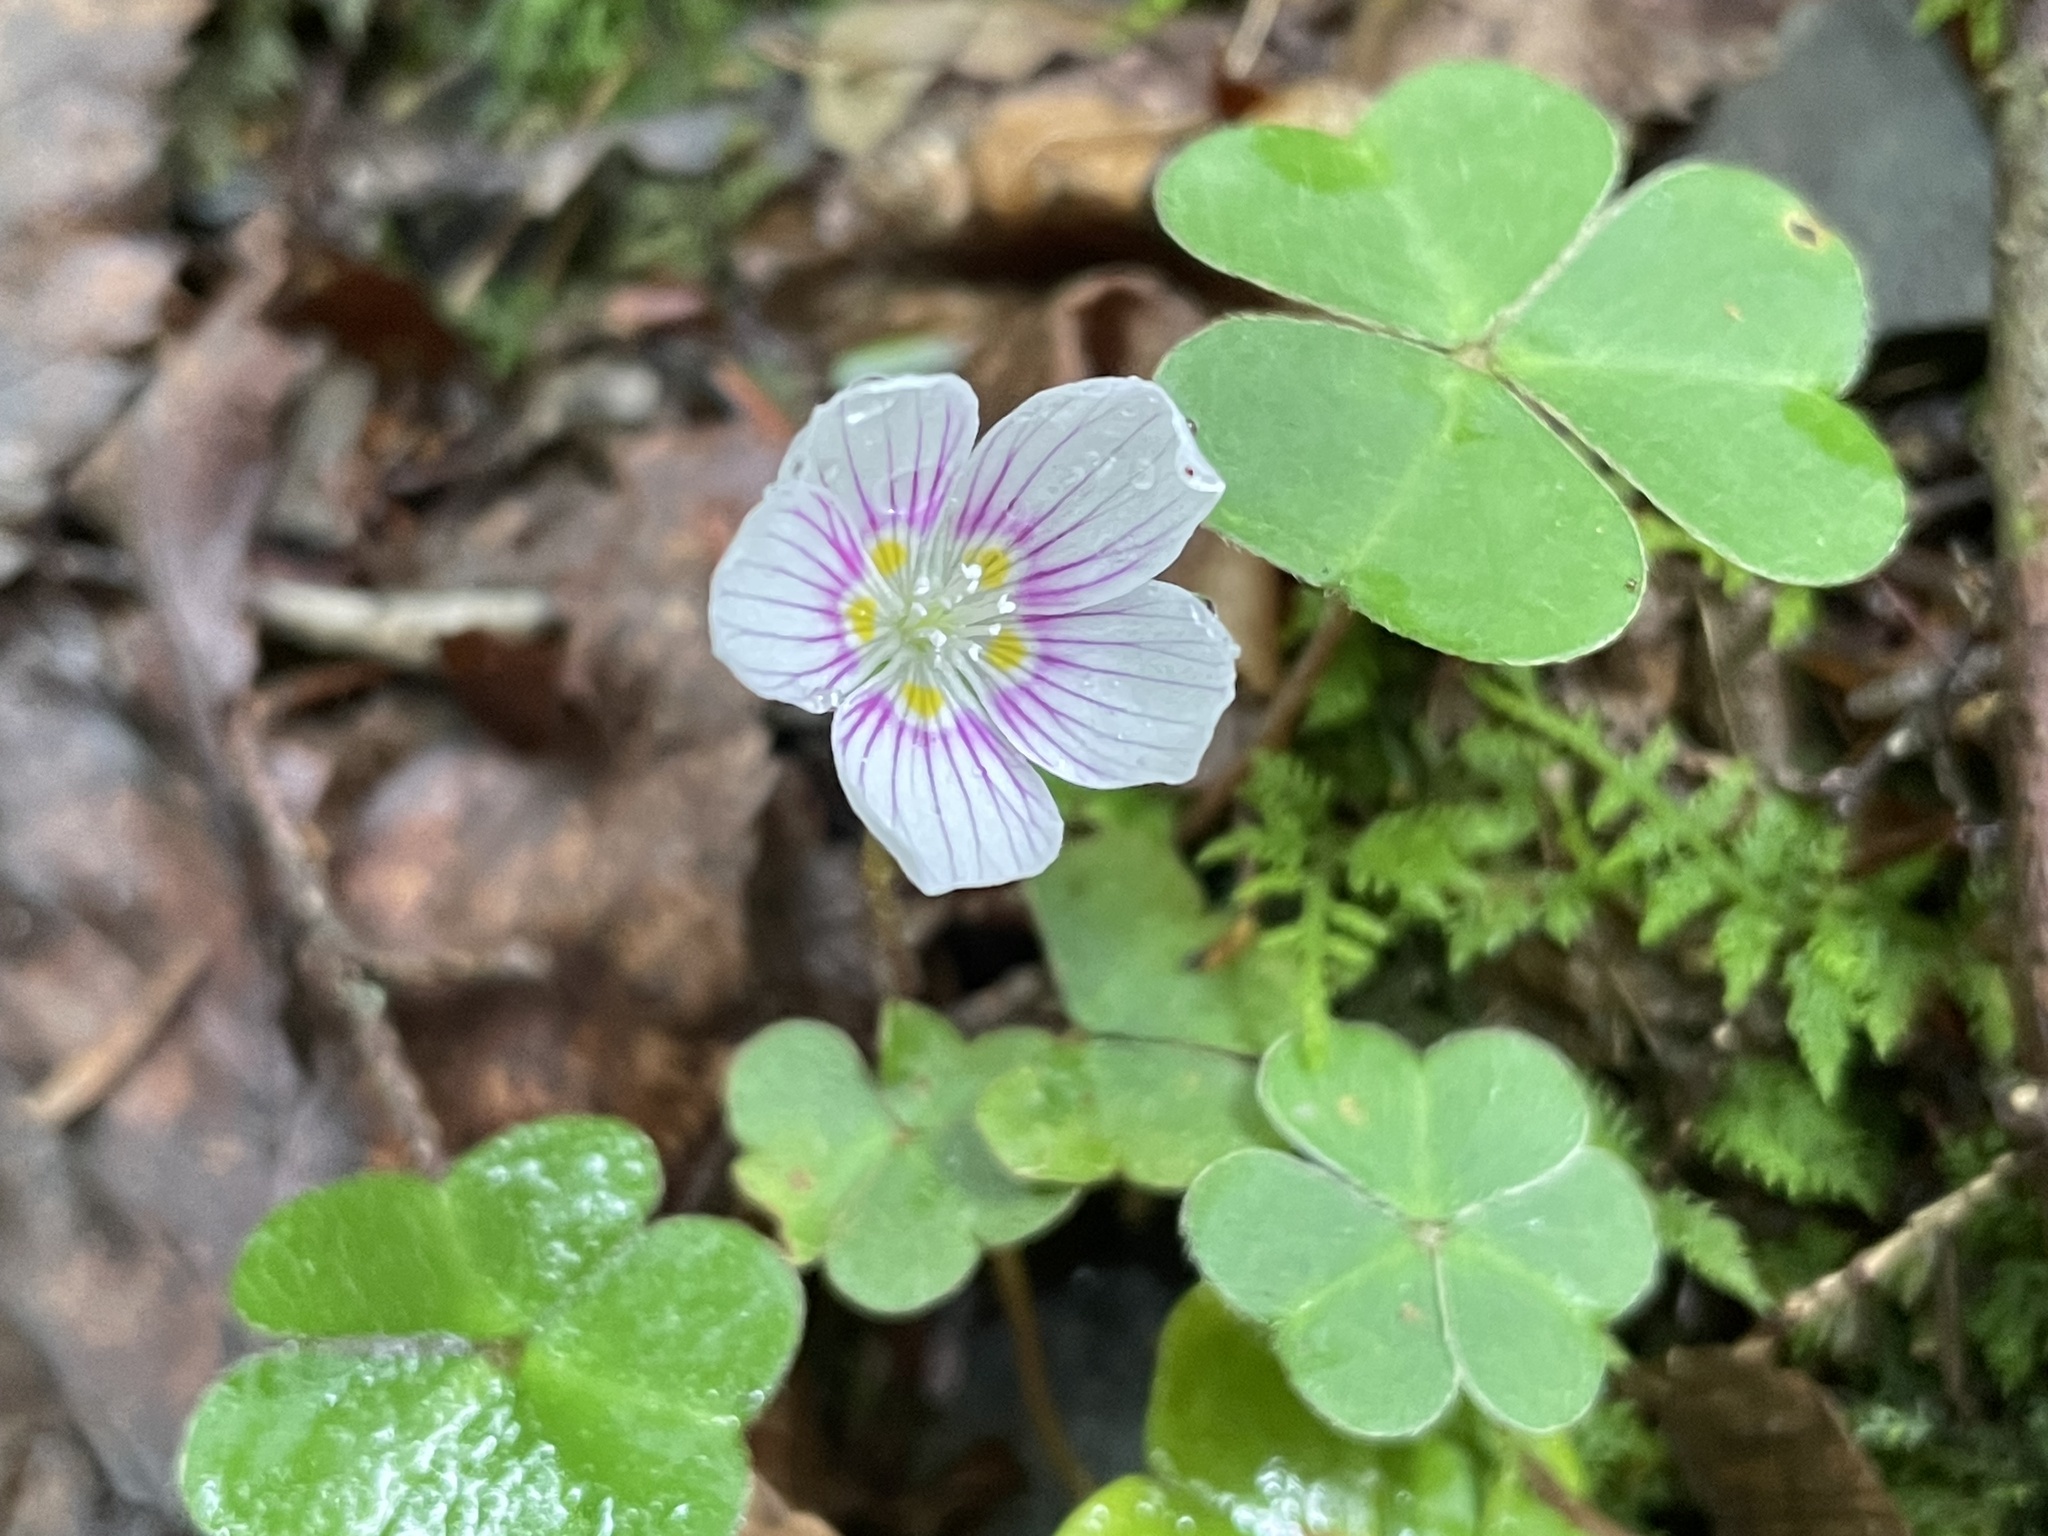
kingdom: Plantae
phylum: Tracheophyta
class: Magnoliopsida
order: Oxalidales
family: Oxalidaceae
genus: Oxalis
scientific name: Oxalis montana
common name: American wood-sorrel
